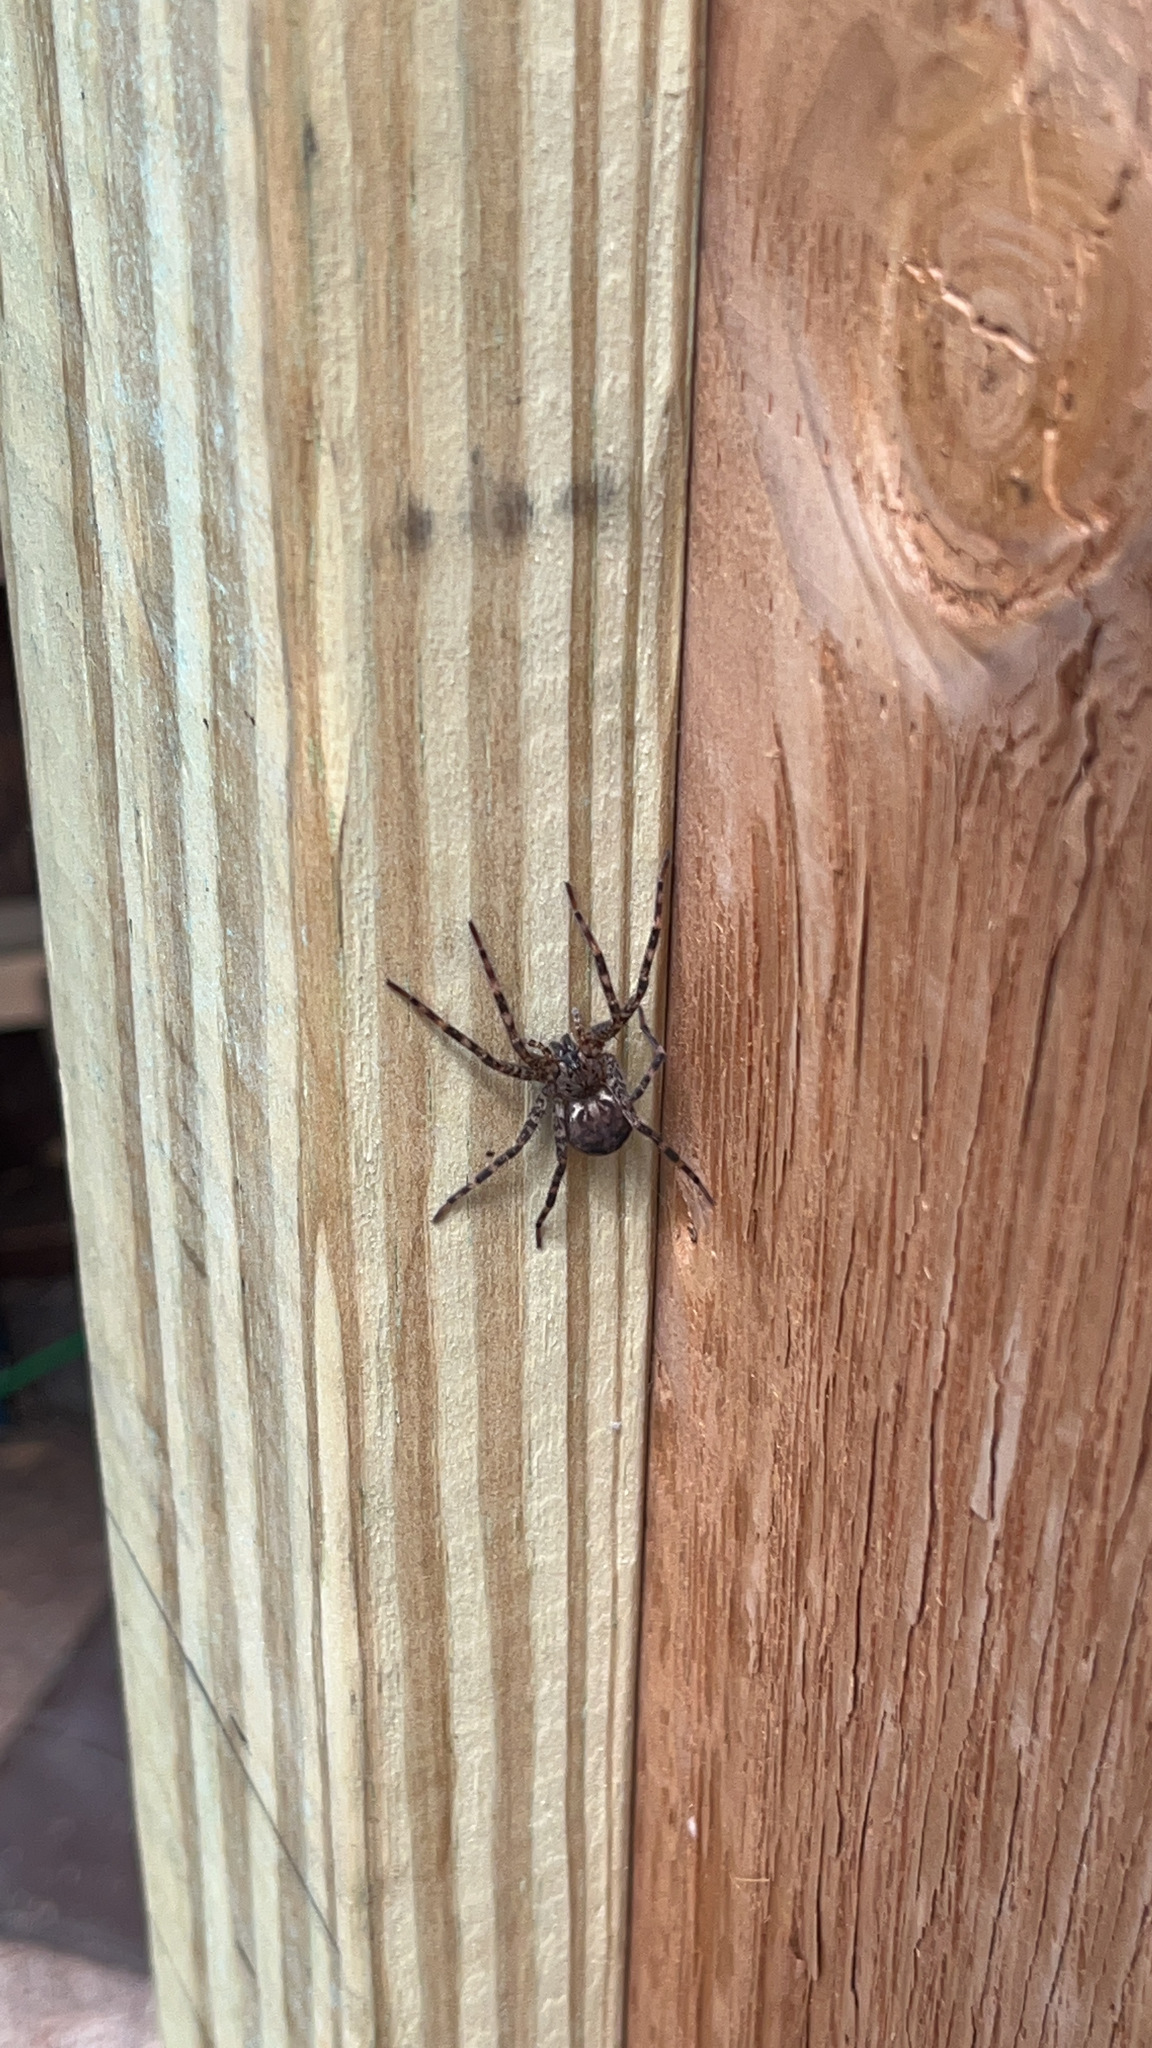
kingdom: Animalia
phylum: Arthropoda
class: Arachnida
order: Araneae
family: Pisauridae
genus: Dolomedes
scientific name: Dolomedes tenebrosus
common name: Dark fishing spider
